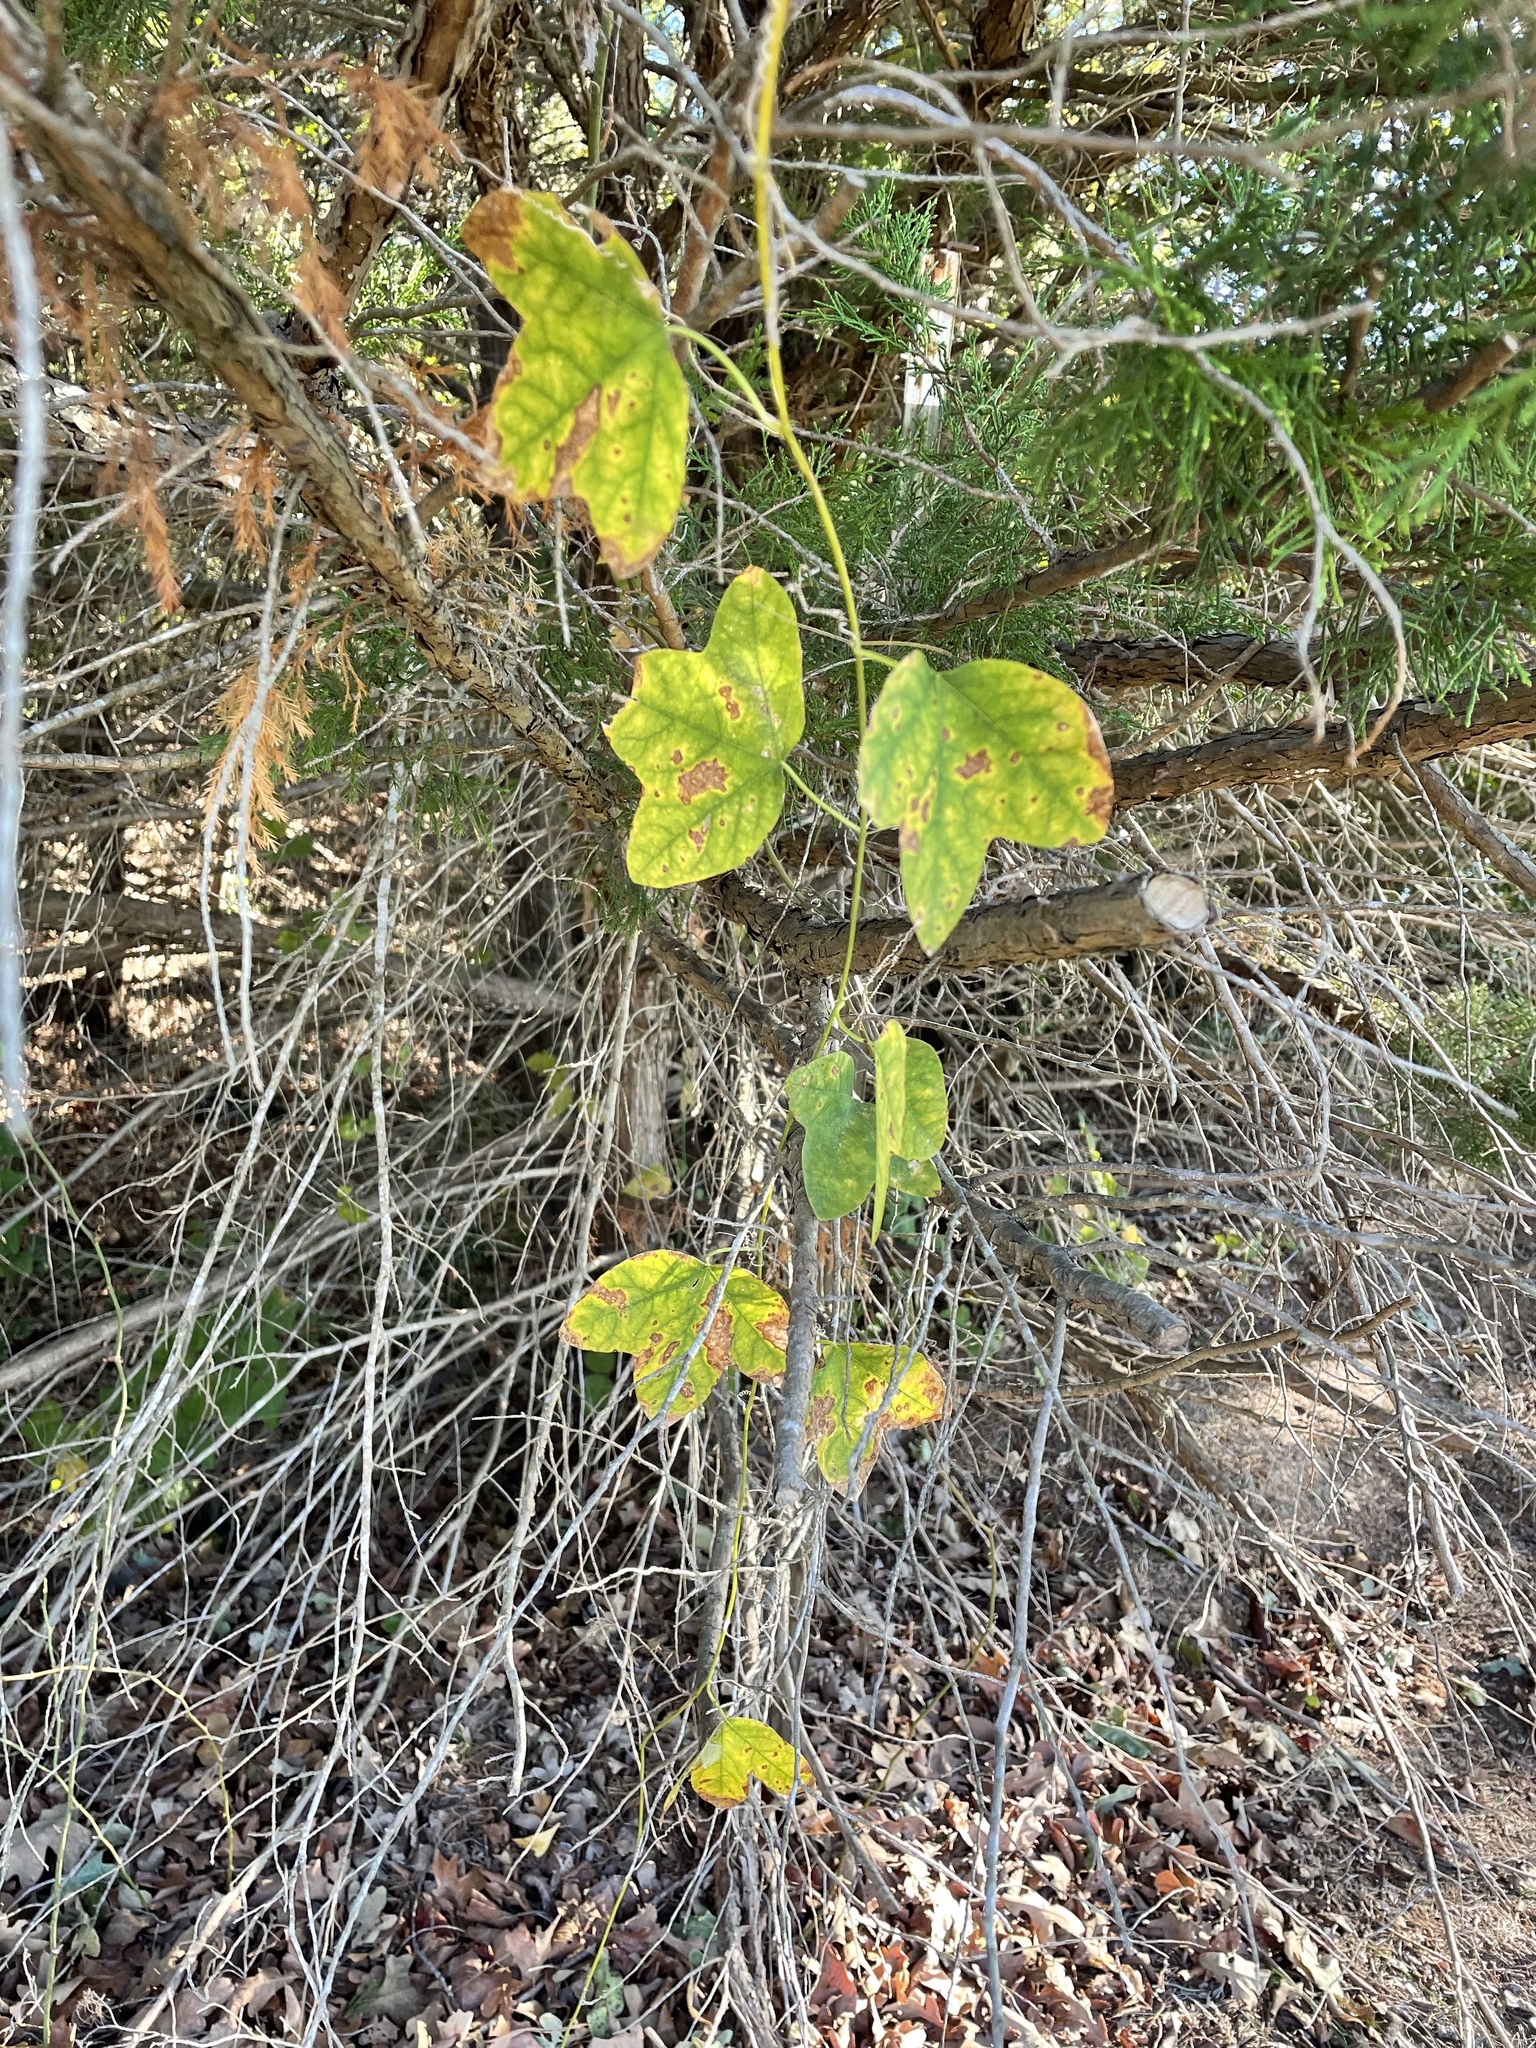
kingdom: Plantae
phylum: Tracheophyta
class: Magnoliopsida
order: Malpighiales
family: Passifloraceae
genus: Passiflora
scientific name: Passiflora lutea
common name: Yellow passionflower
